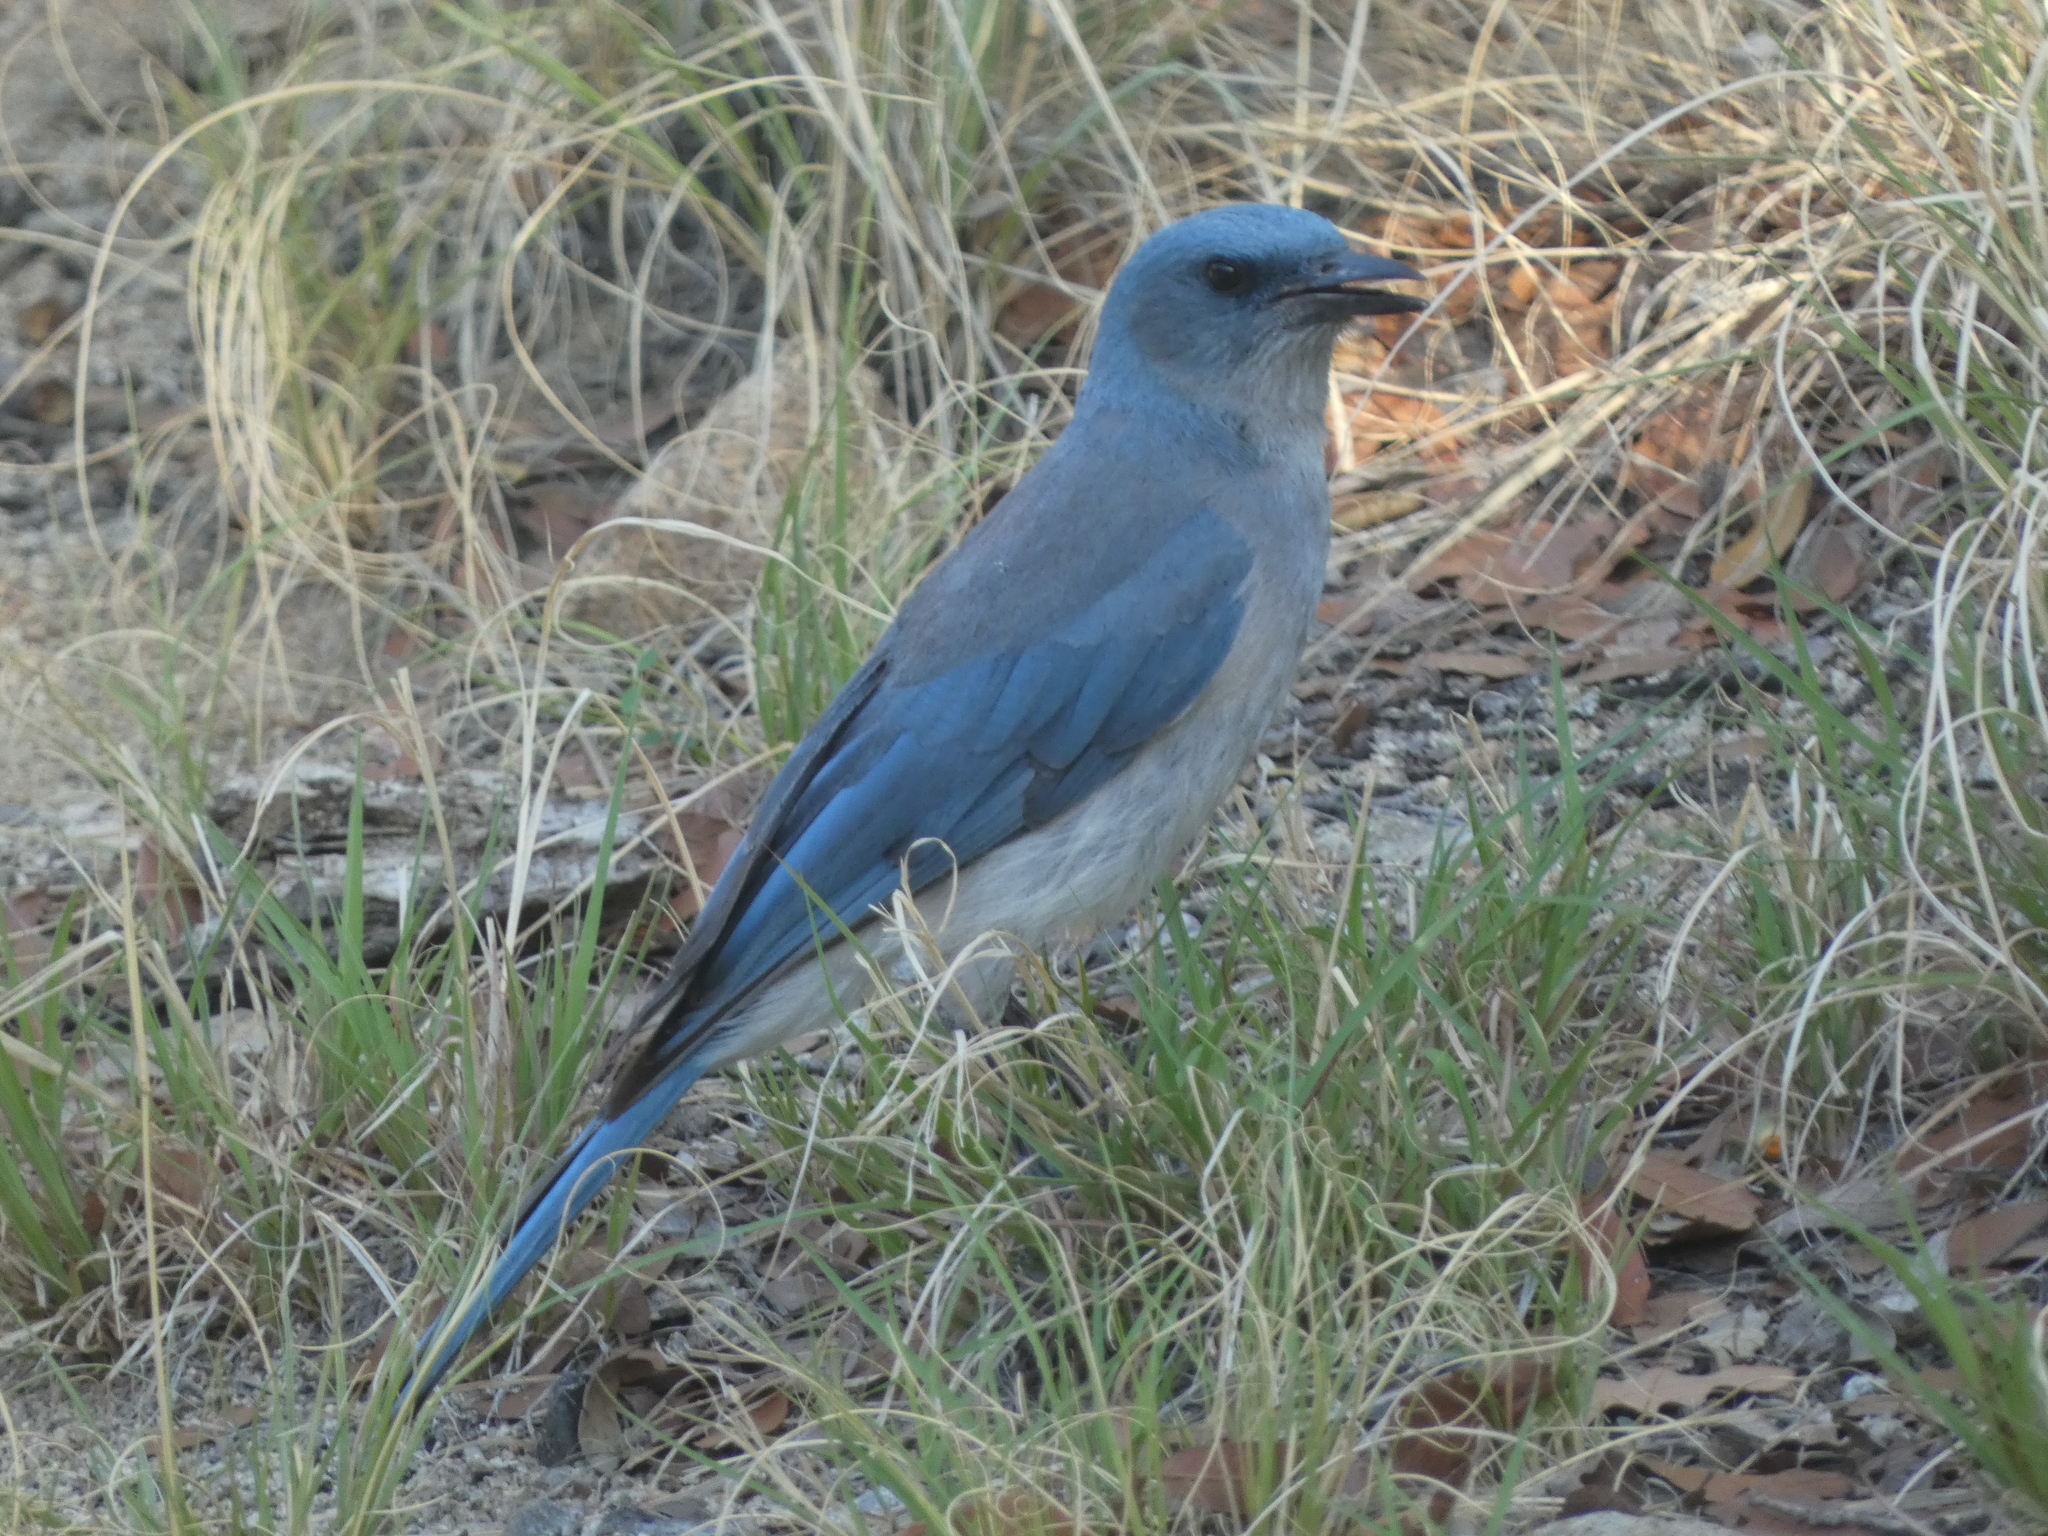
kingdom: Animalia
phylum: Chordata
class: Aves
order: Passeriformes
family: Corvidae
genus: Aphelocoma
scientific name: Aphelocoma wollweberi
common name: Mexican jay
